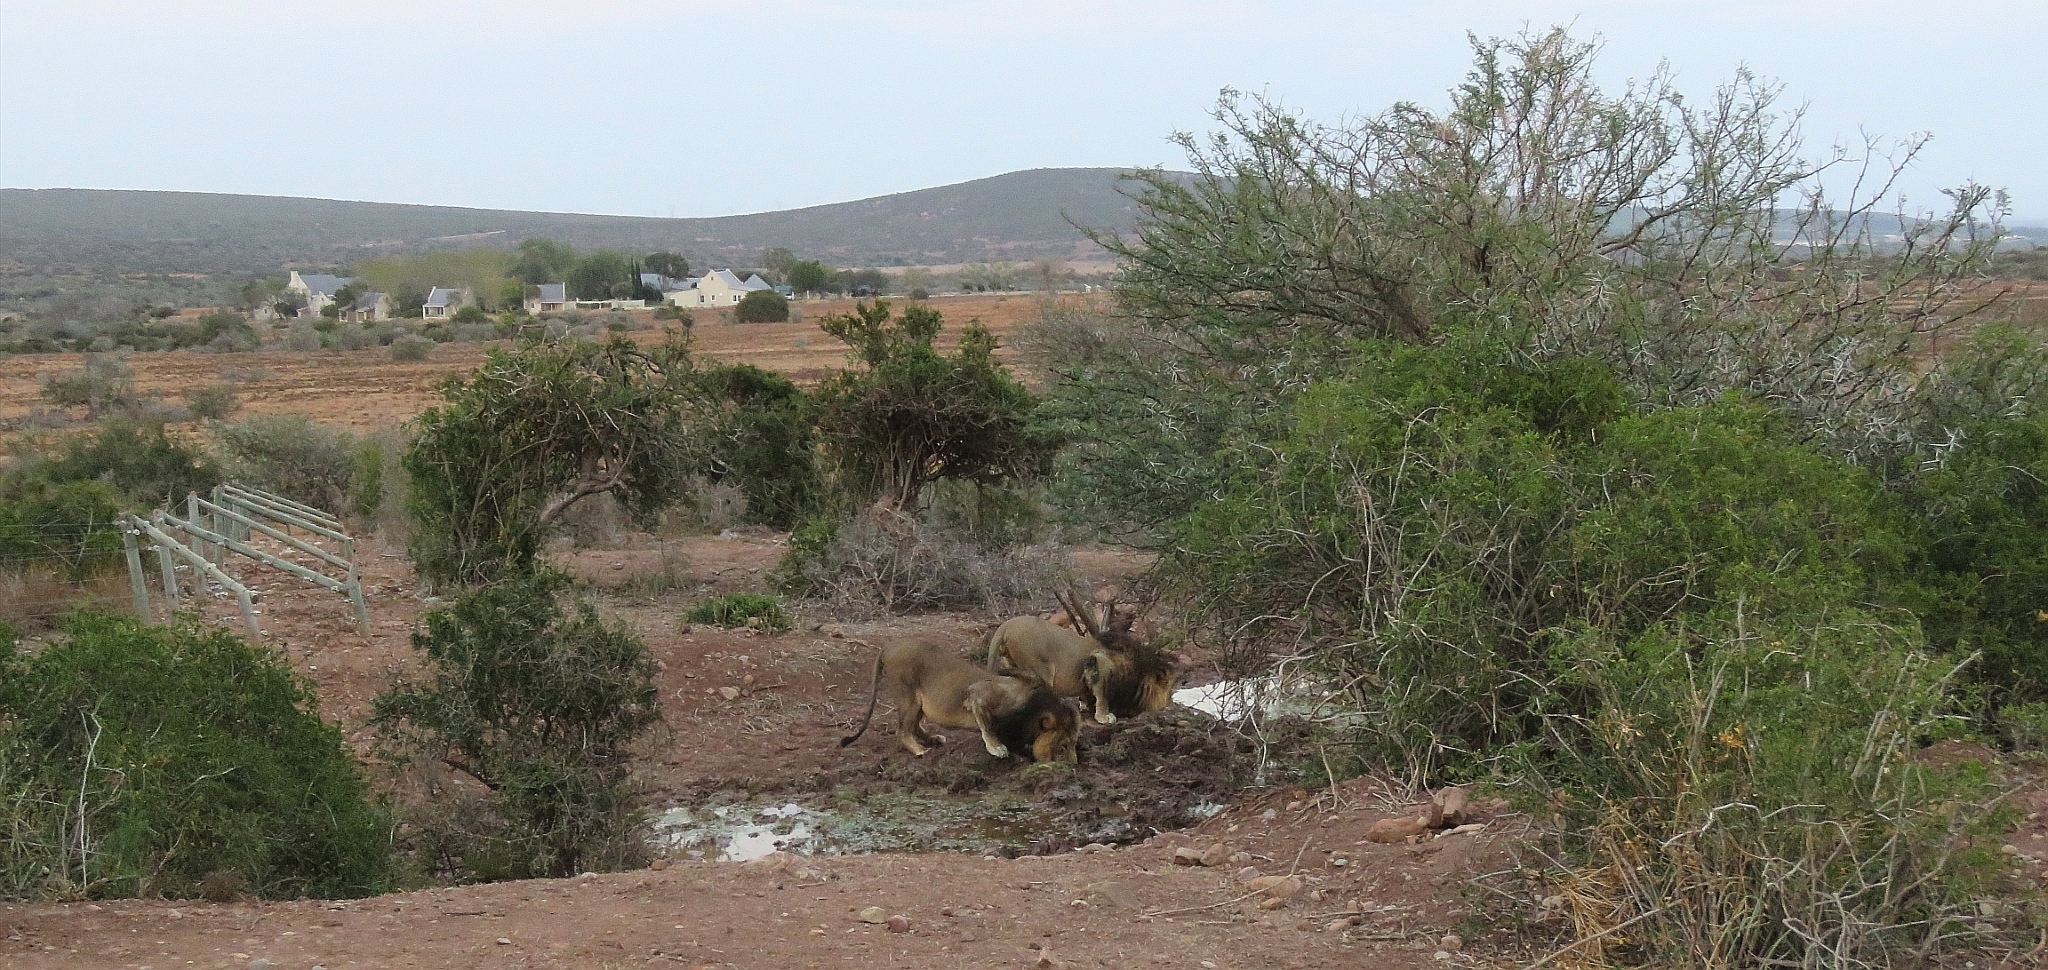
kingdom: Animalia
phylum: Chordata
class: Mammalia
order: Carnivora
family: Felidae
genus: Panthera
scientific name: Panthera leo
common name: Lion
